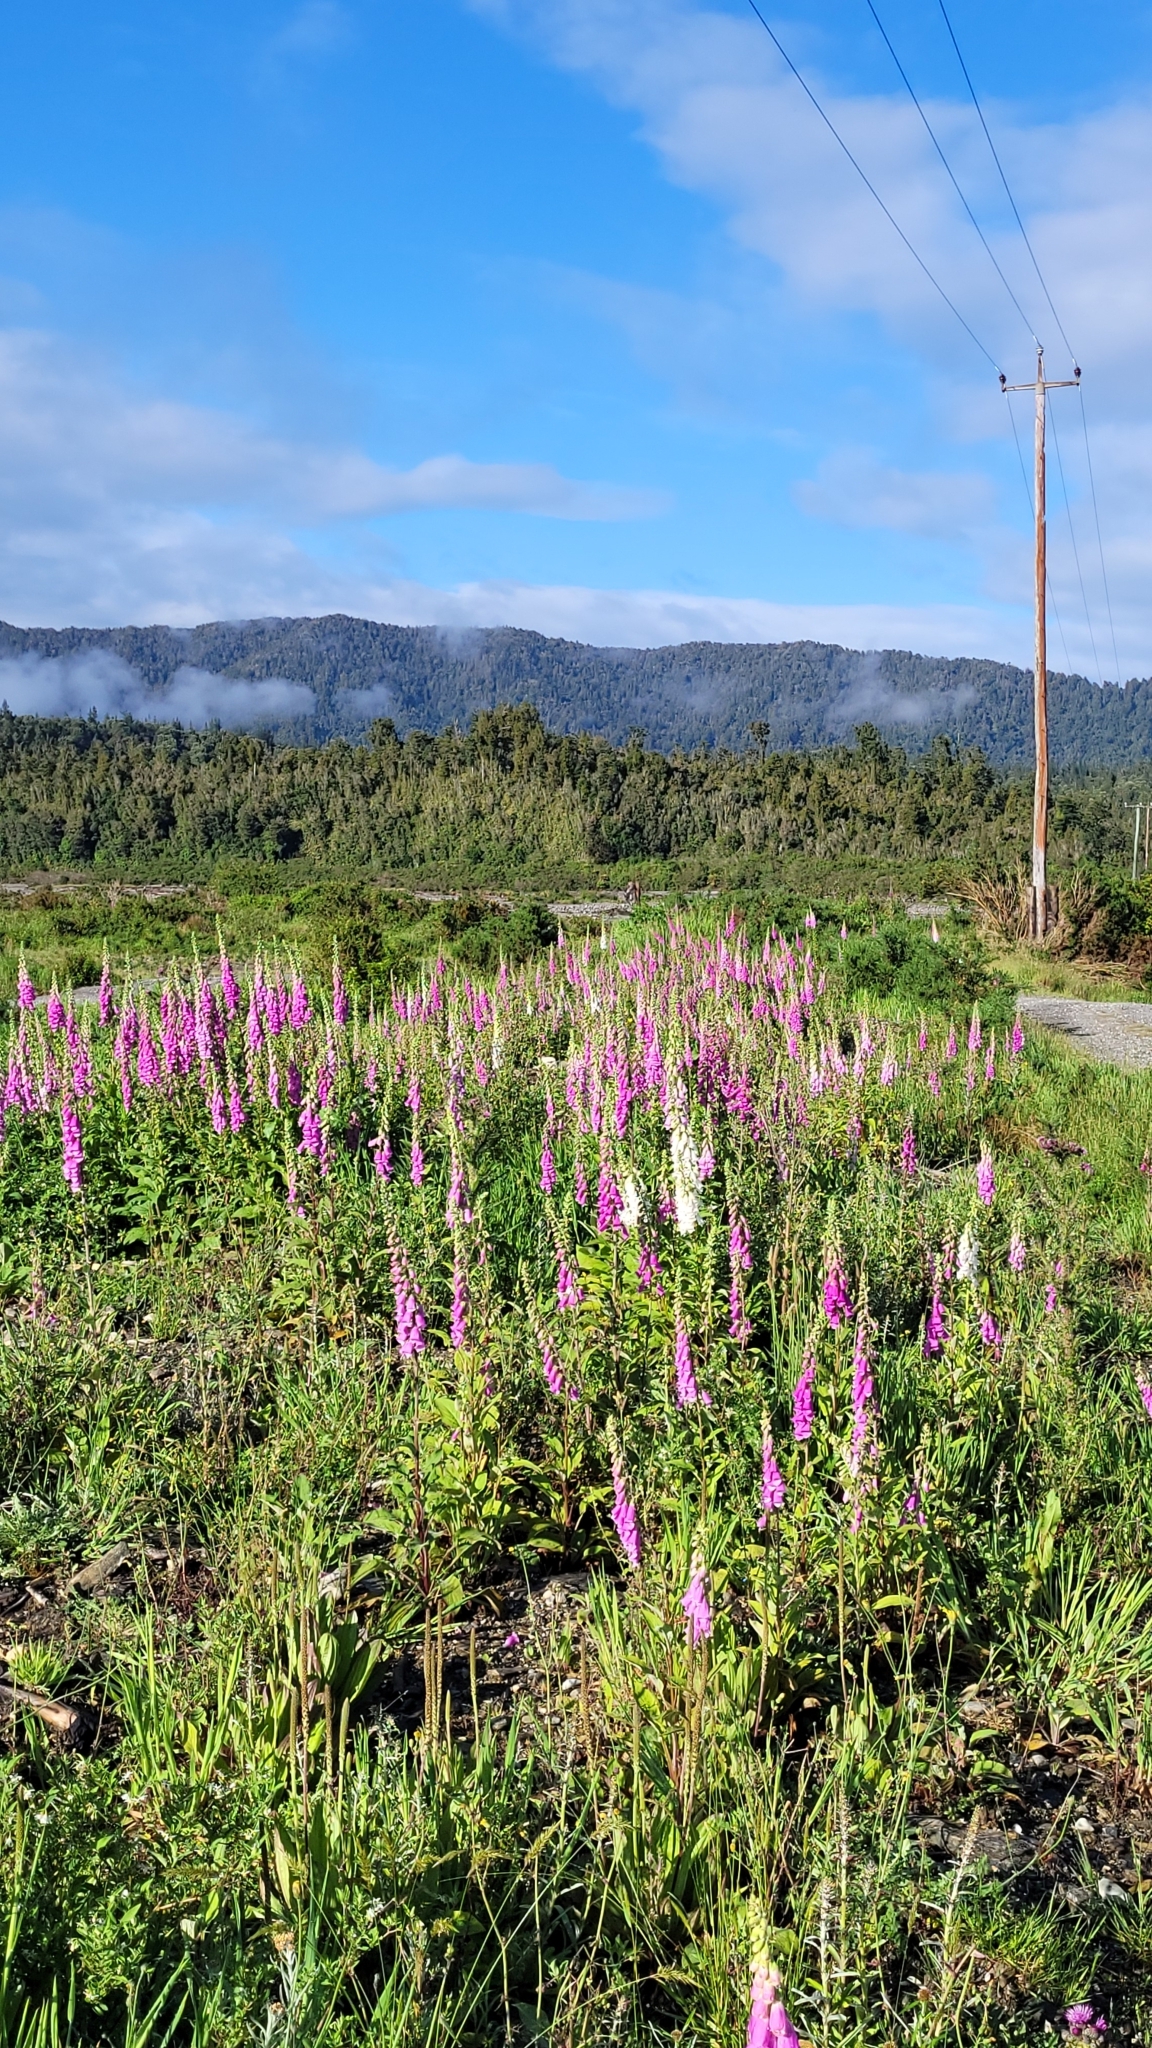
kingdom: Plantae
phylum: Tracheophyta
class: Magnoliopsida
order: Lamiales
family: Plantaginaceae
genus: Digitalis
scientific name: Digitalis purpurea
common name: Foxglove
